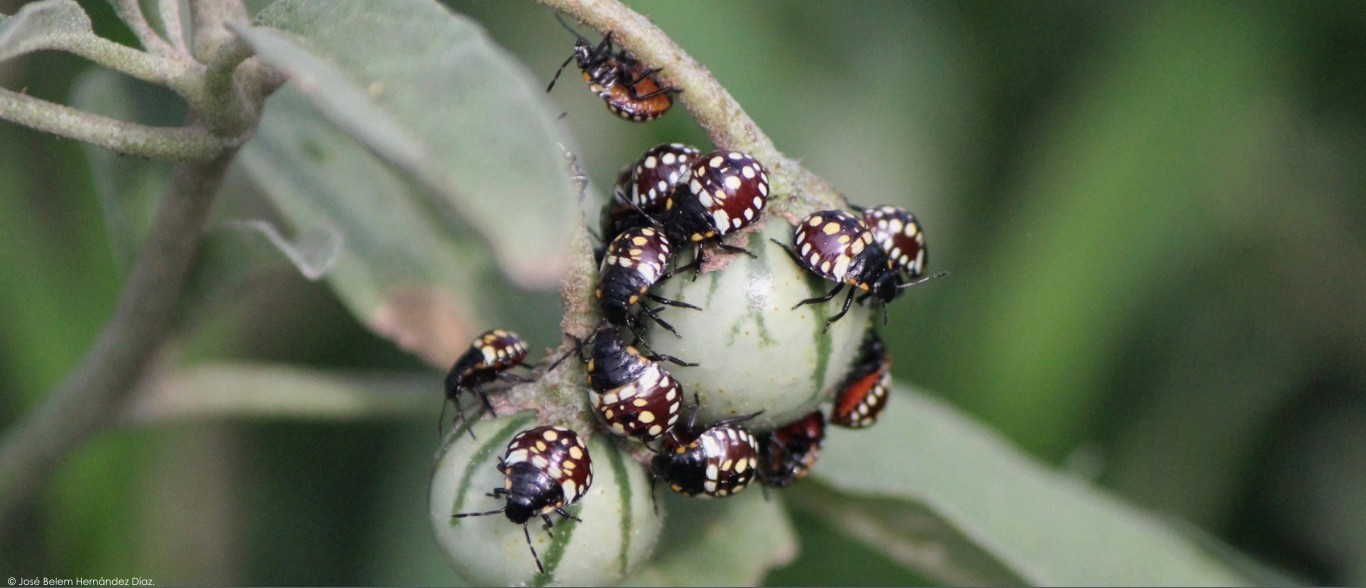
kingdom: Animalia
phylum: Arthropoda
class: Insecta
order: Hemiptera
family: Pentatomidae
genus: Nezara
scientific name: Nezara viridula
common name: Southern green stink bug
